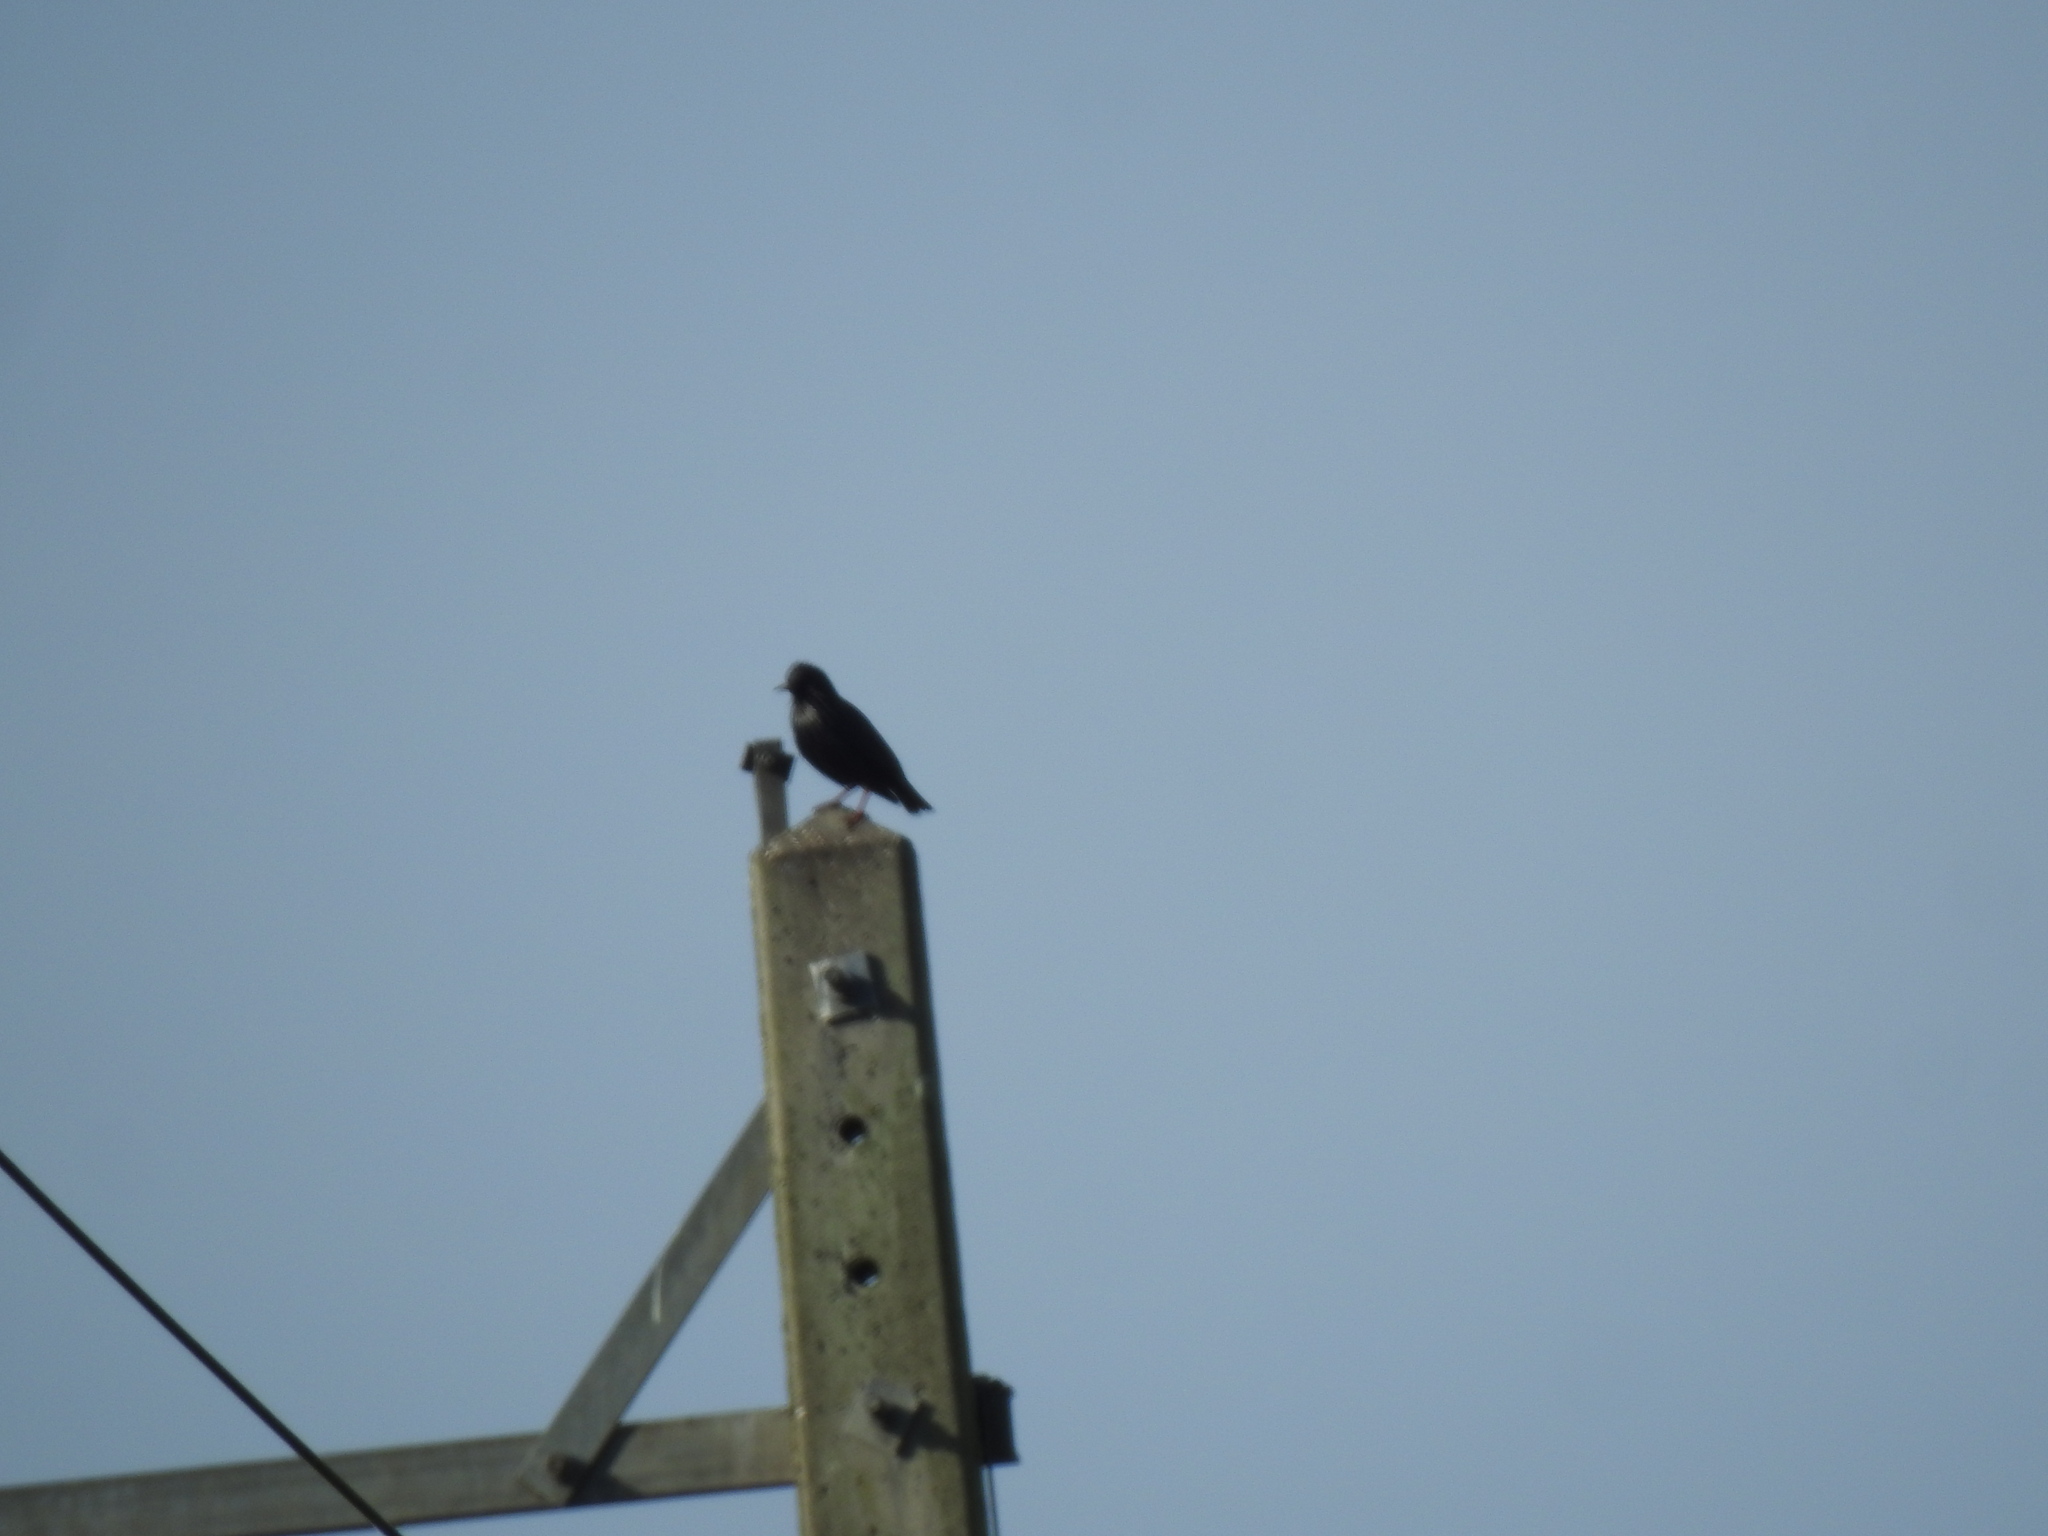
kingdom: Animalia
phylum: Chordata
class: Aves
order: Passeriformes
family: Sturnidae
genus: Sturnus
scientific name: Sturnus unicolor
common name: Spotless starling
